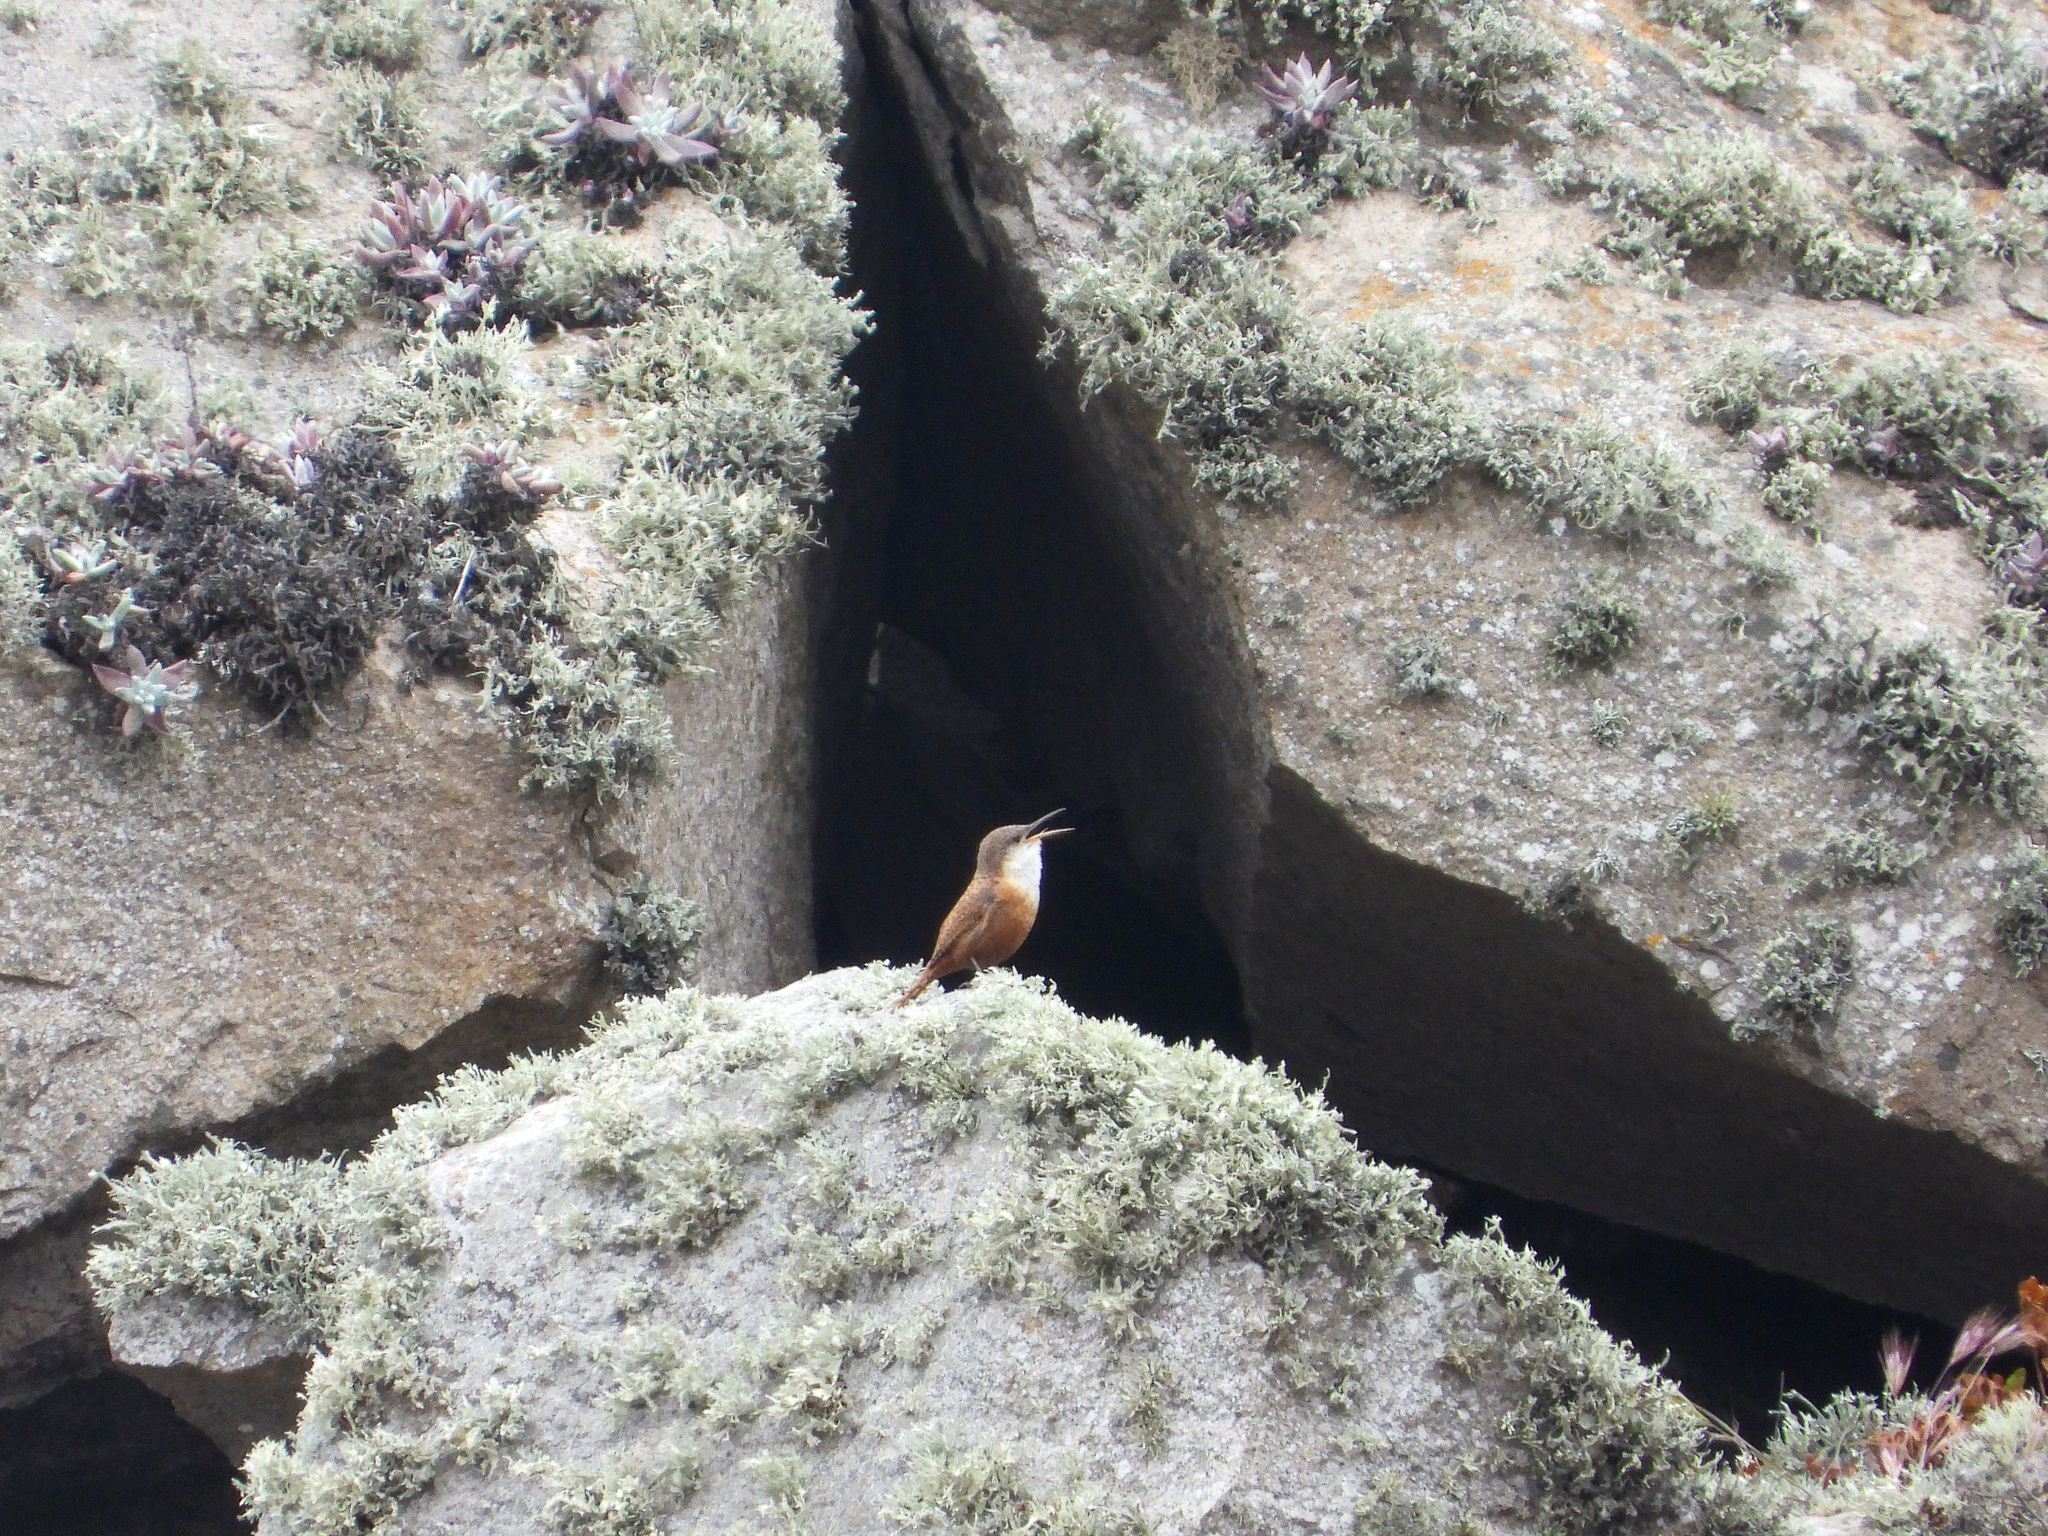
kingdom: Animalia
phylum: Chordata
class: Aves
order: Passeriformes
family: Troglodytidae
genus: Catherpes
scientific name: Catherpes mexicanus
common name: Canyon wren
